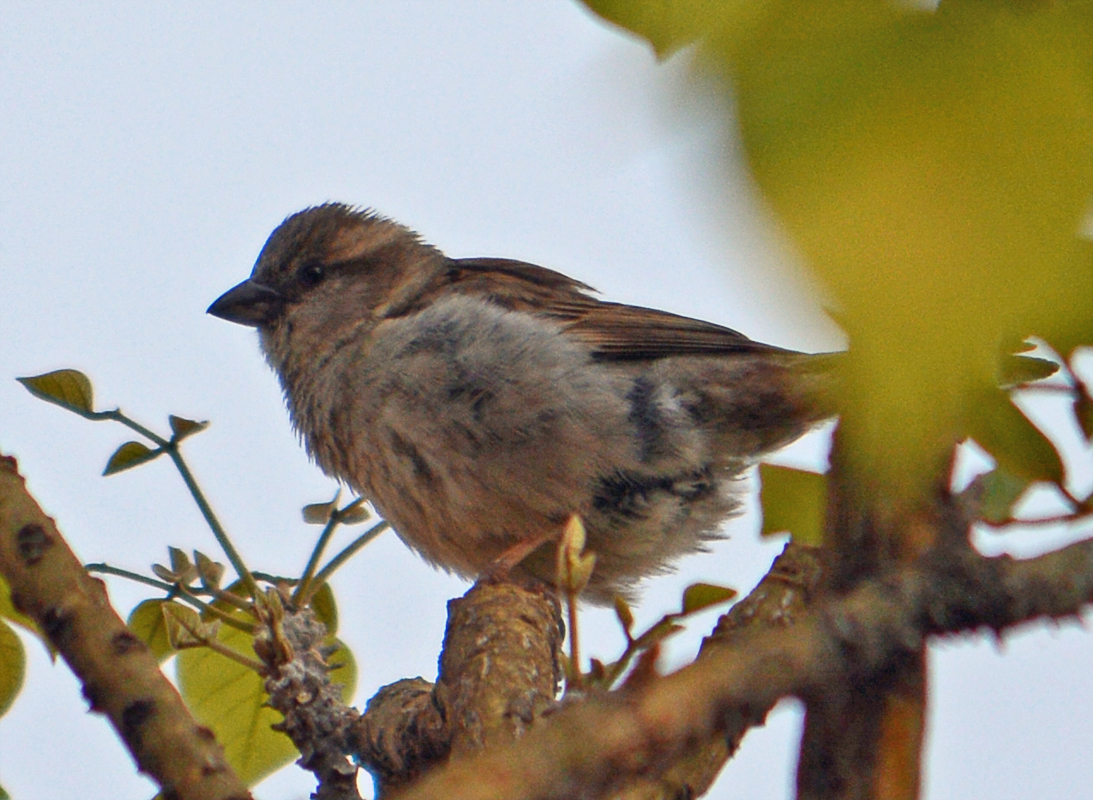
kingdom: Animalia
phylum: Chordata
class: Aves
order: Passeriformes
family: Passeridae
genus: Passer
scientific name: Passer domesticus
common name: House sparrow
